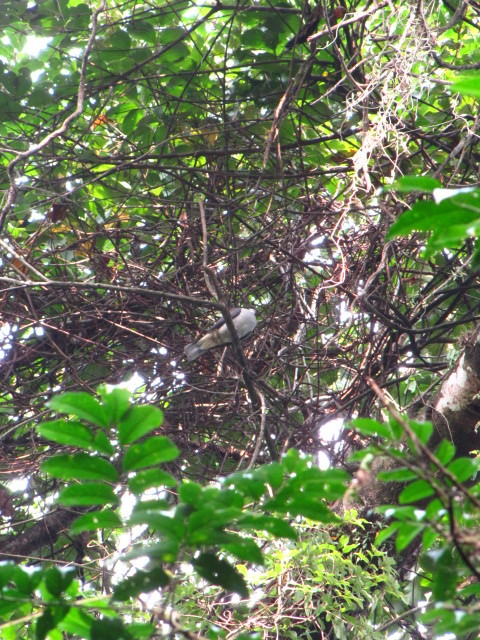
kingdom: Animalia
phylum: Chordata
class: Aves
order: Columbiformes
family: Columbidae
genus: Ducula
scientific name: Ducula badia
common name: Mountain imperial pigeon
